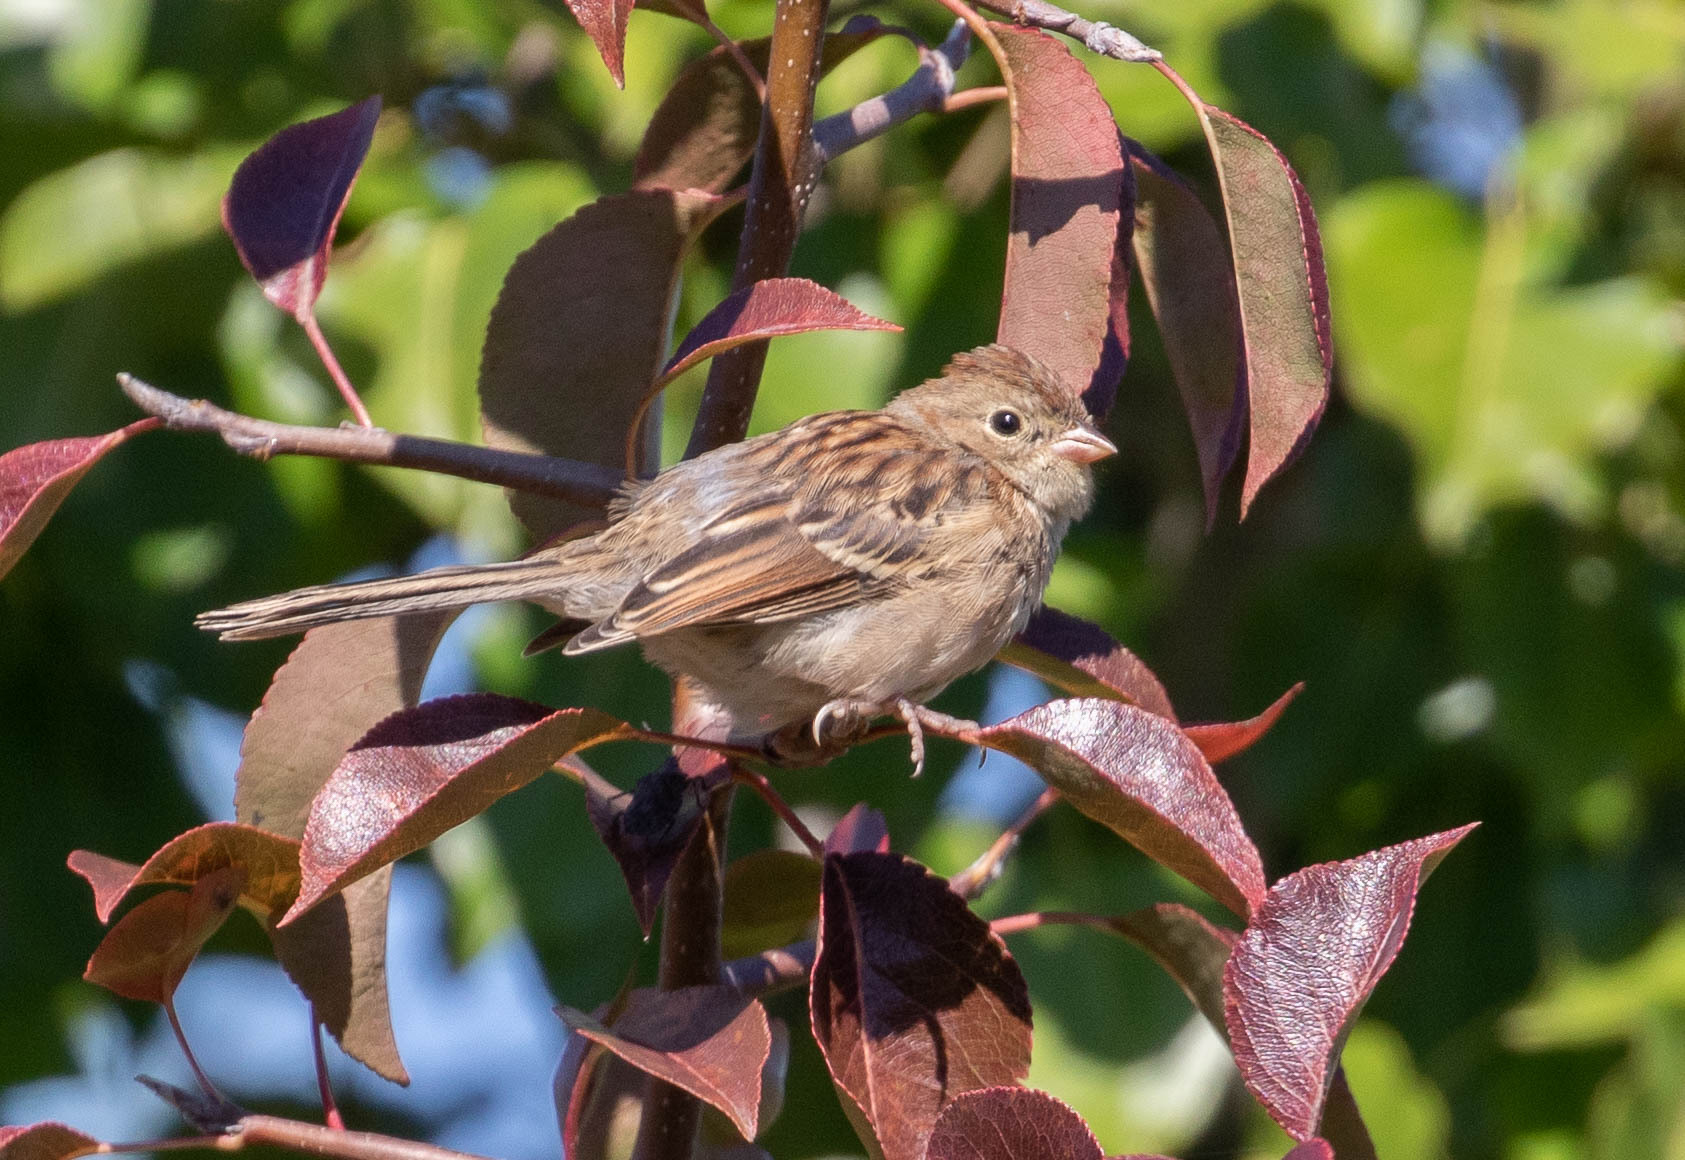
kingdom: Animalia
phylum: Chordata
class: Aves
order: Passeriformes
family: Passerellidae
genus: Spizella
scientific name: Spizella pusilla
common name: Field sparrow
